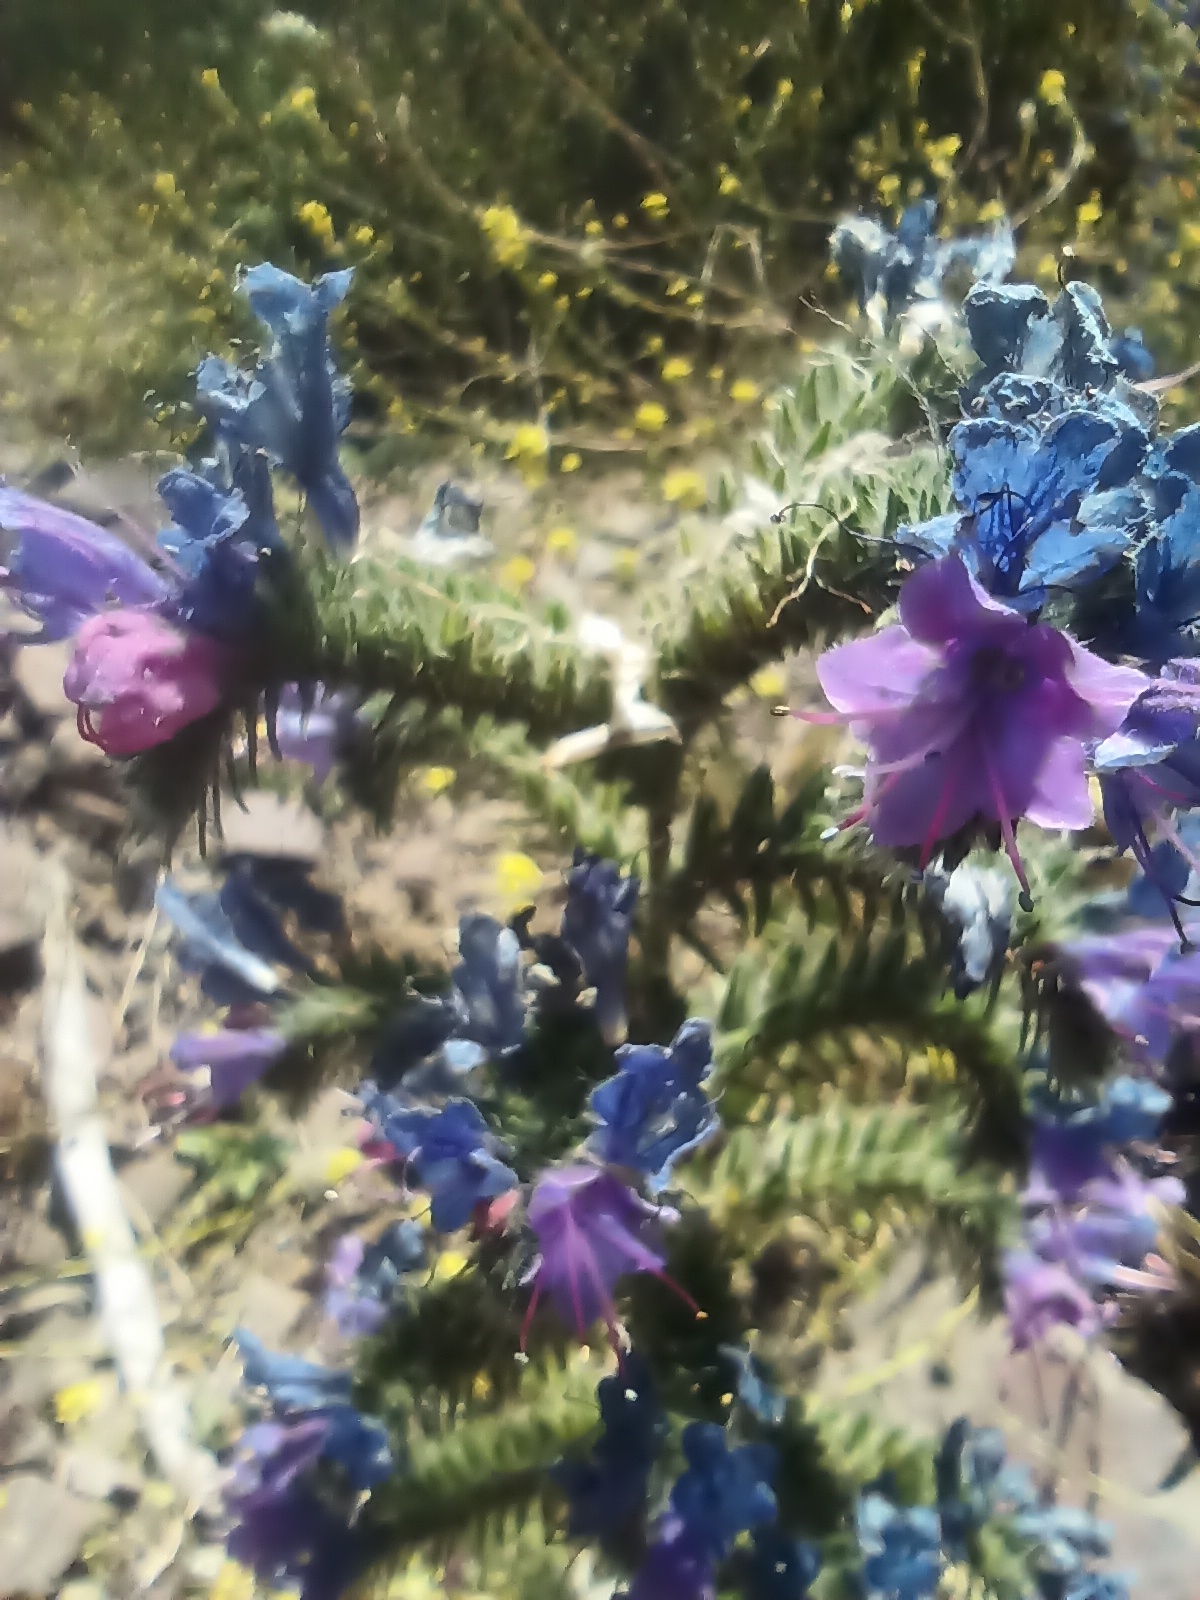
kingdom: Plantae
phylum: Tracheophyta
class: Magnoliopsida
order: Boraginales
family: Boraginaceae
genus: Echium
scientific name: Echium vulgare
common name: Common viper's bugloss
